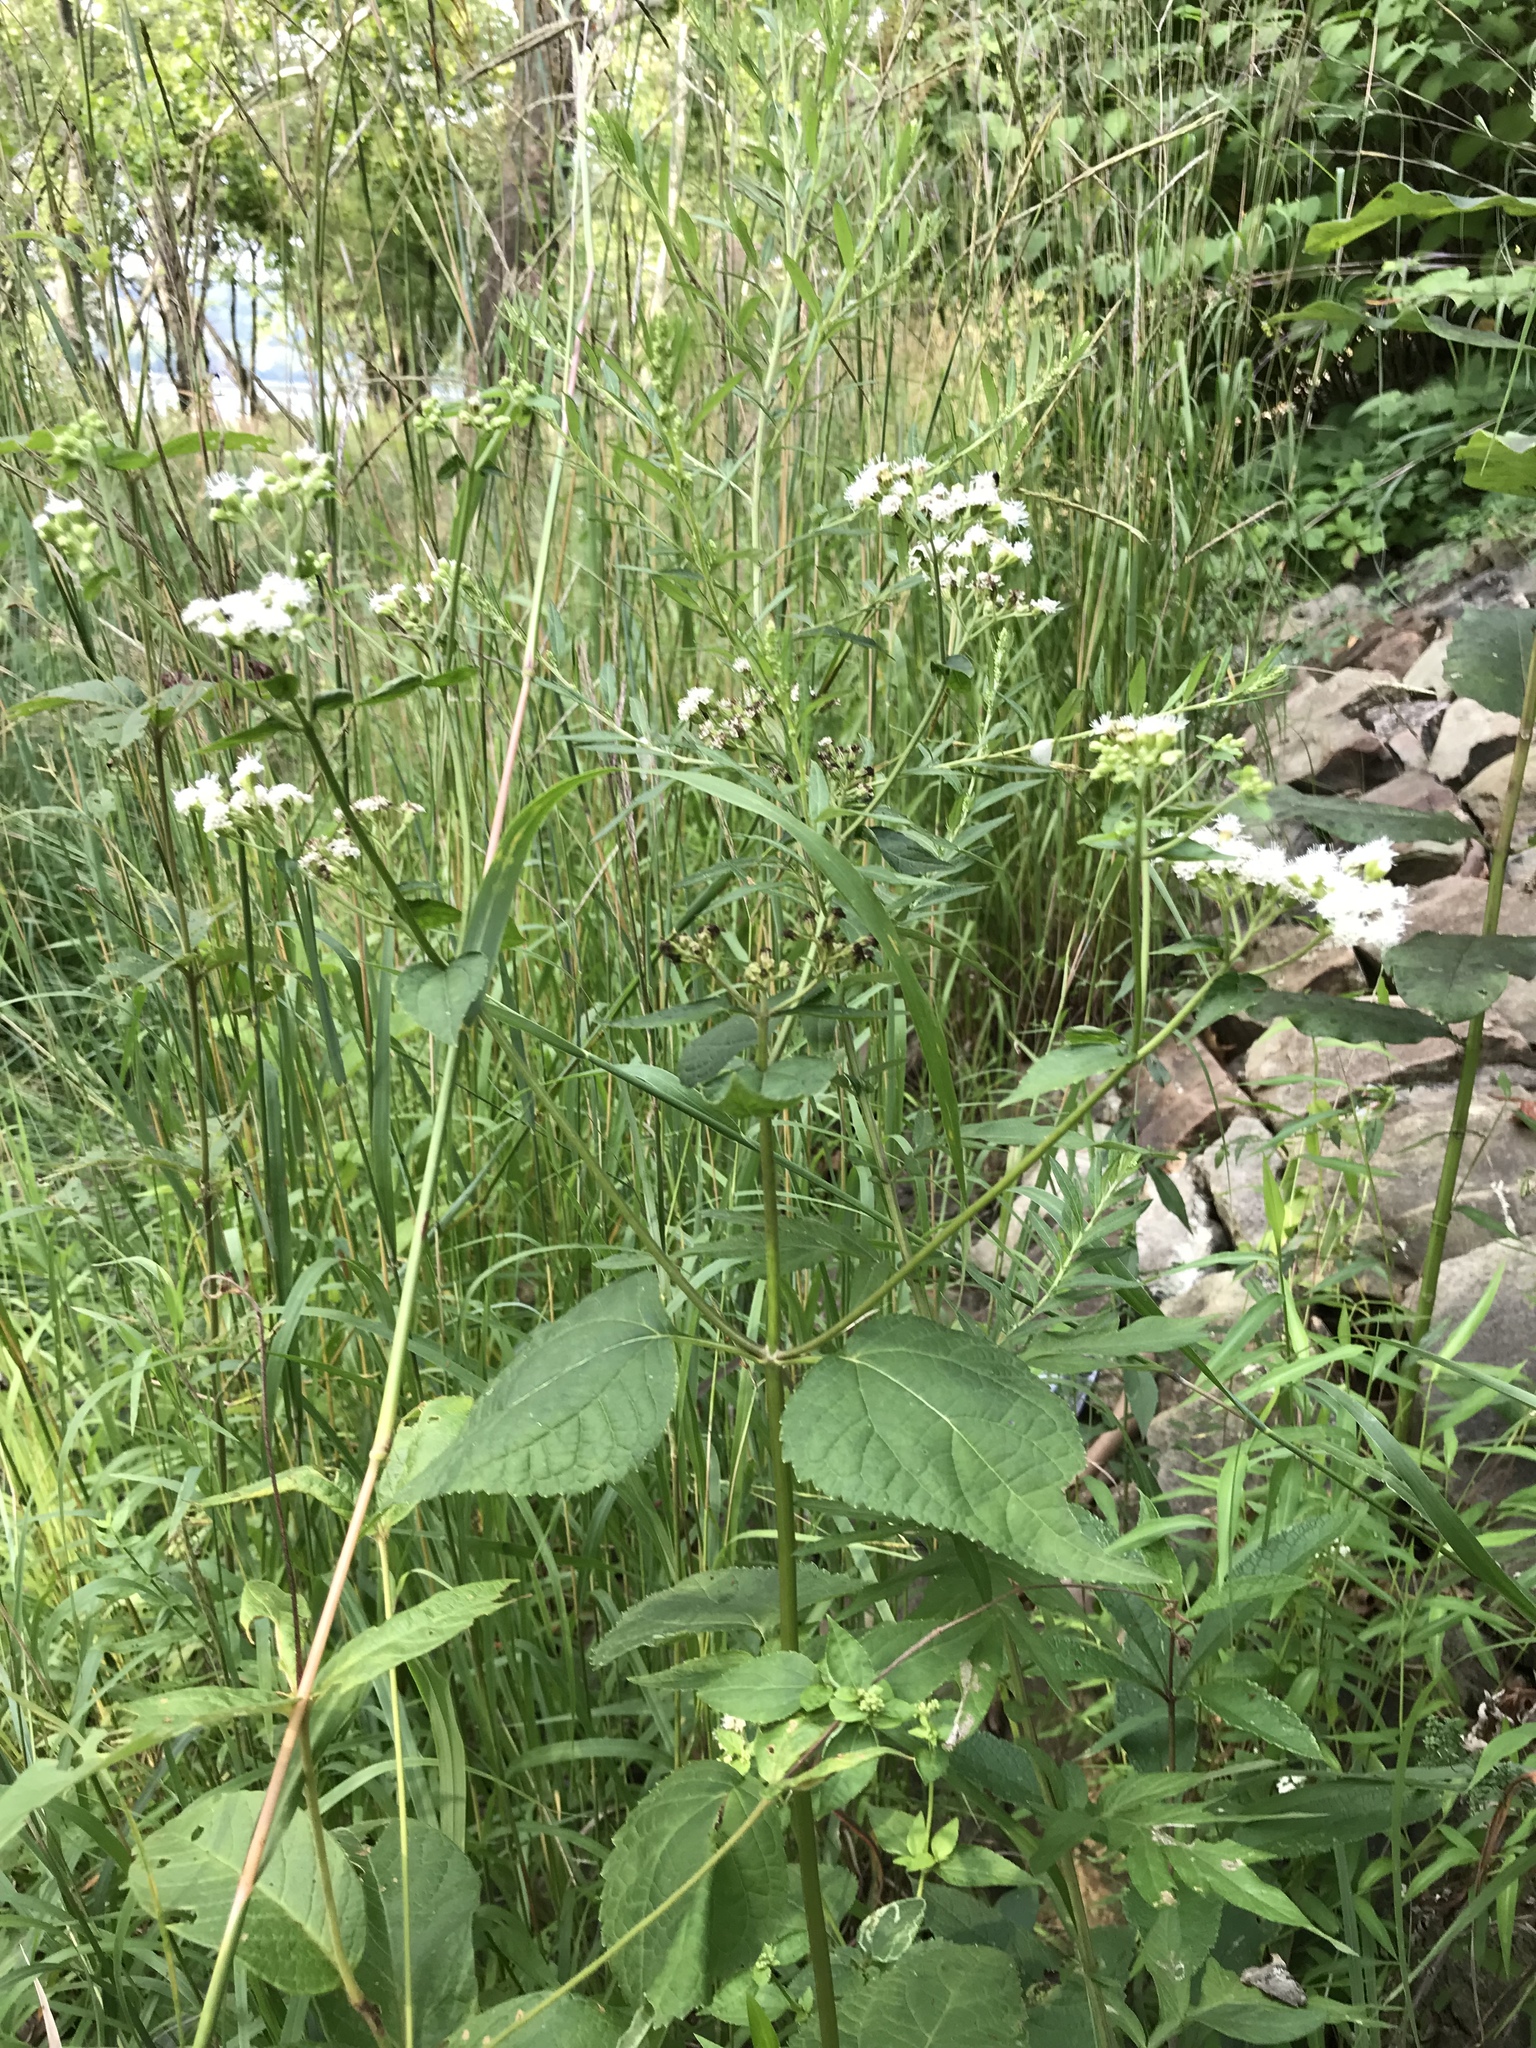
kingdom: Plantae
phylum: Tracheophyta
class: Magnoliopsida
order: Asterales
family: Asteraceae
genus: Ageratina
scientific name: Ageratina altissima
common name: White snakeroot
